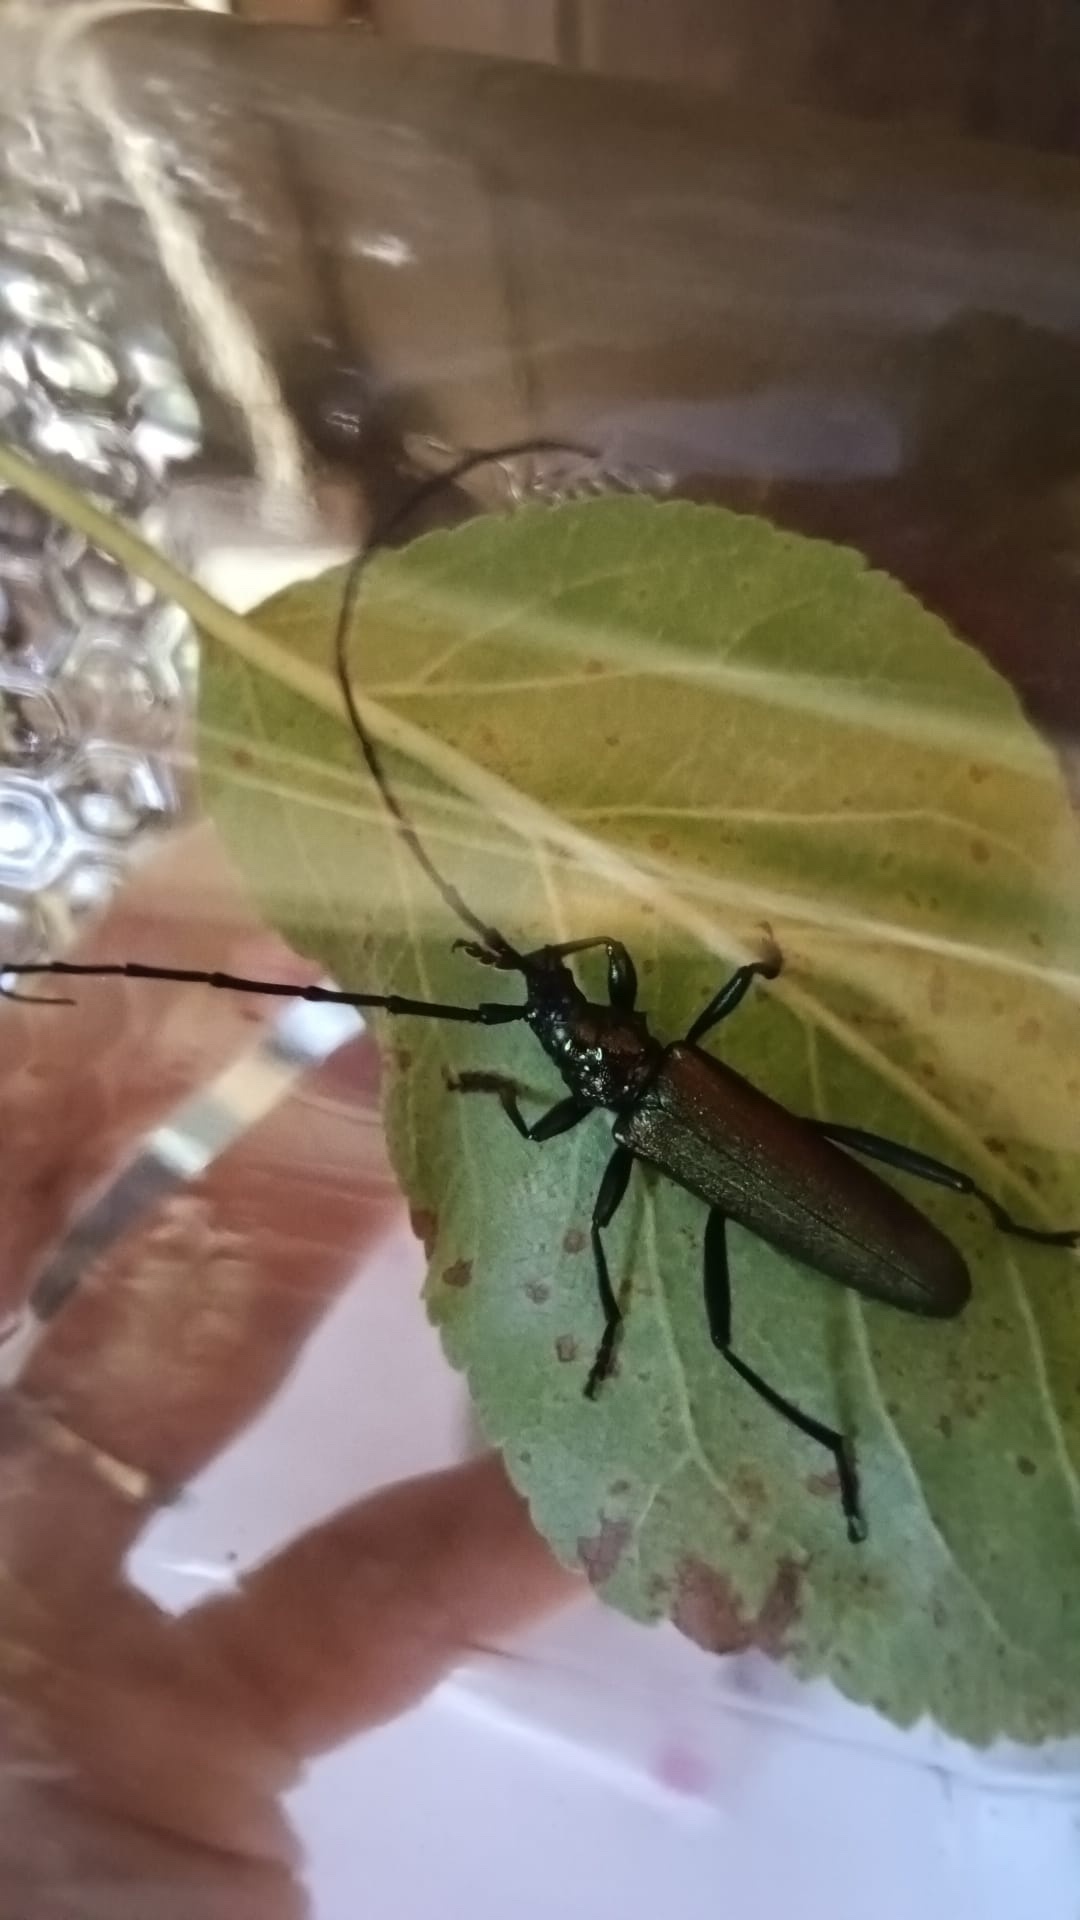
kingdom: Animalia
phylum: Arthropoda
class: Insecta
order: Coleoptera
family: Cerambycidae
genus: Aromia
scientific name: Aromia moschata
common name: Musk beetle
